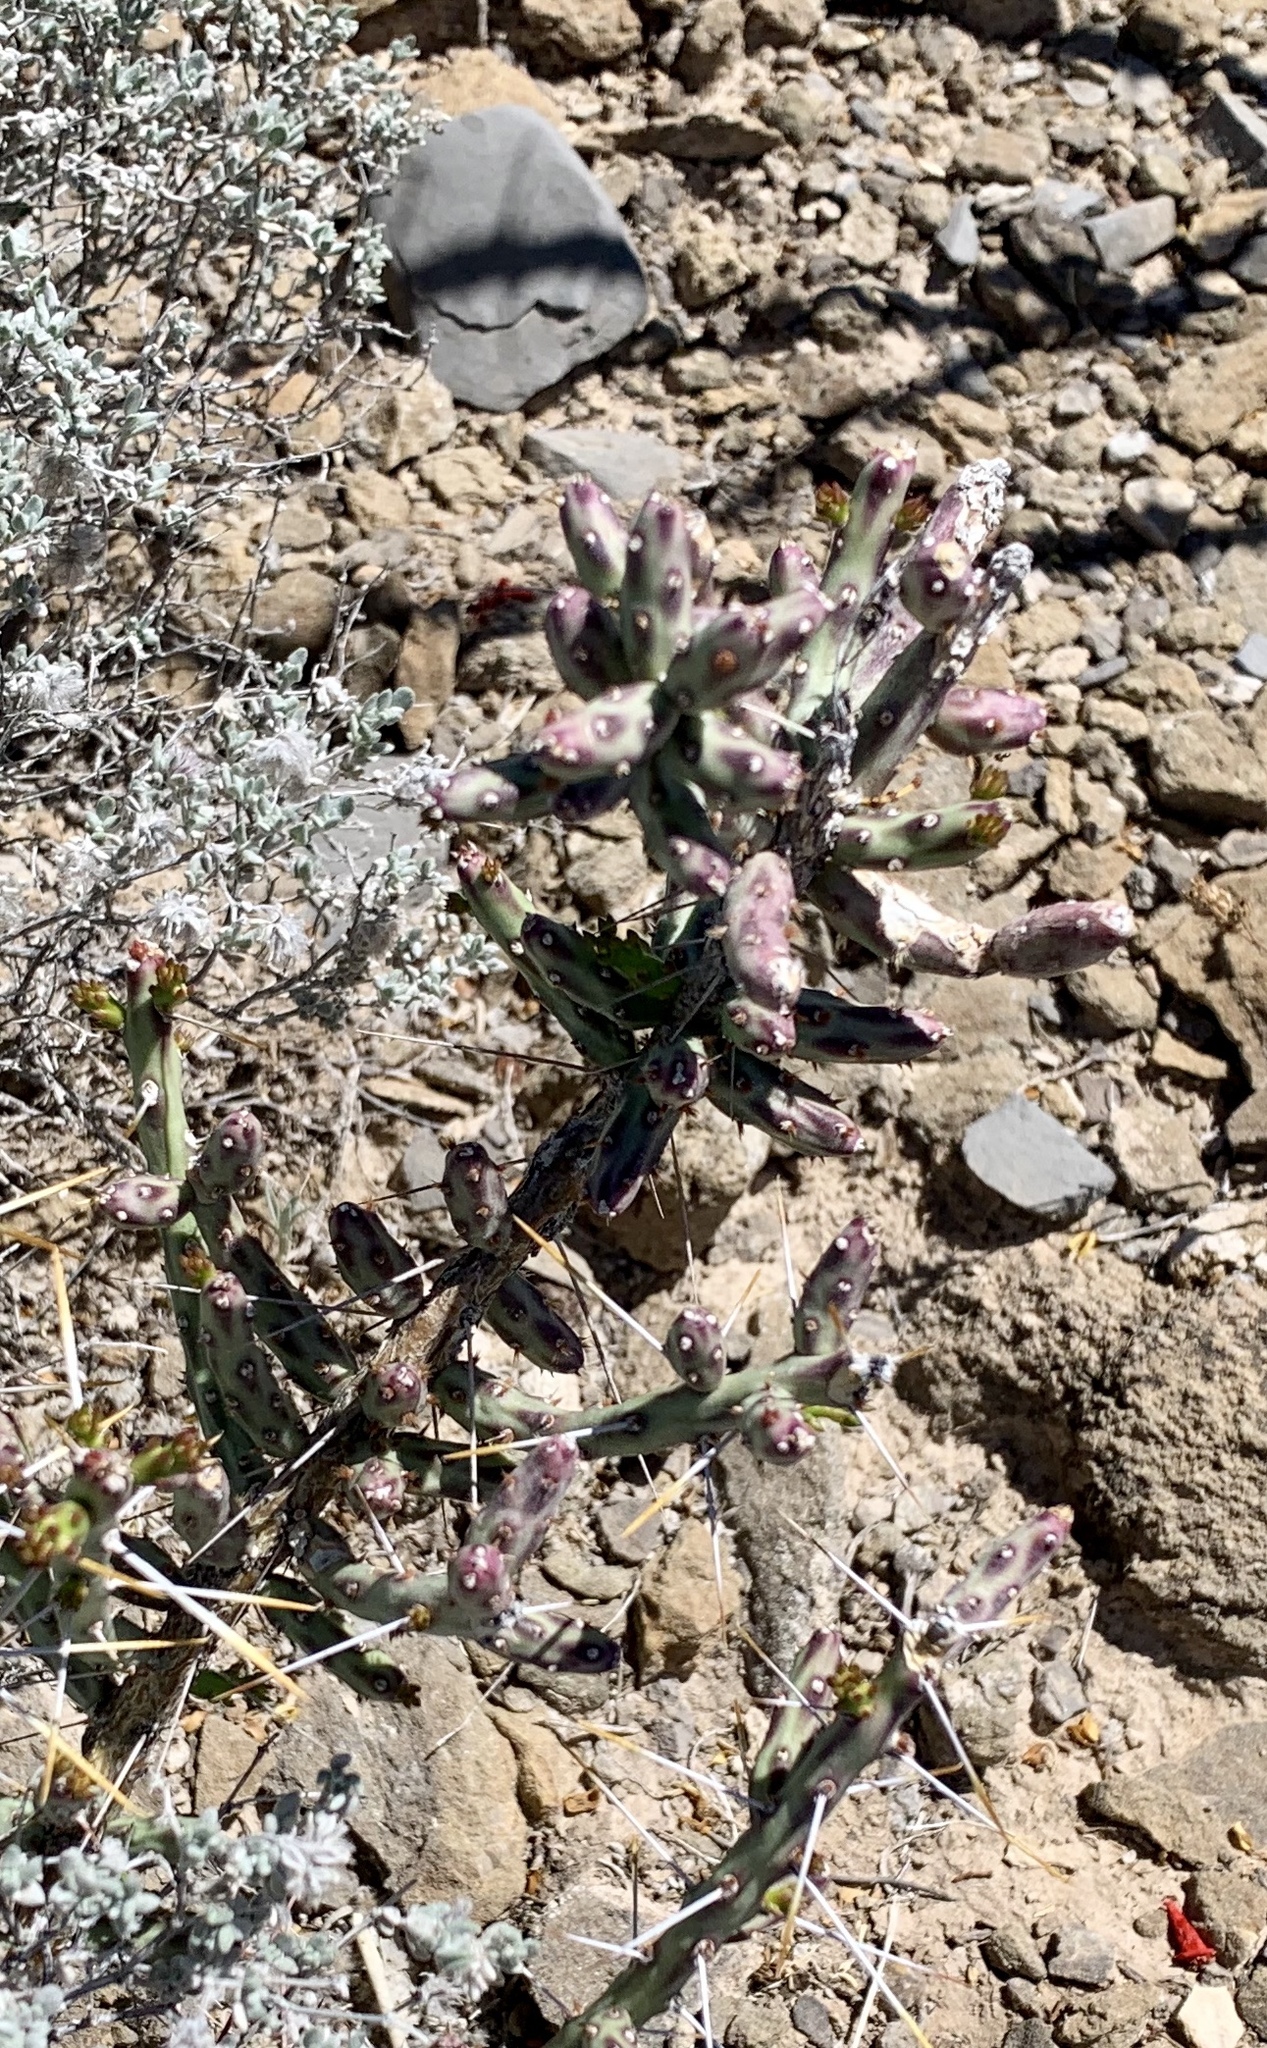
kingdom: Plantae
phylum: Tracheophyta
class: Magnoliopsida
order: Caryophyllales
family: Cactaceae
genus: Cylindropuntia
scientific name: Cylindropuntia leptocaulis
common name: Christmas cactus
